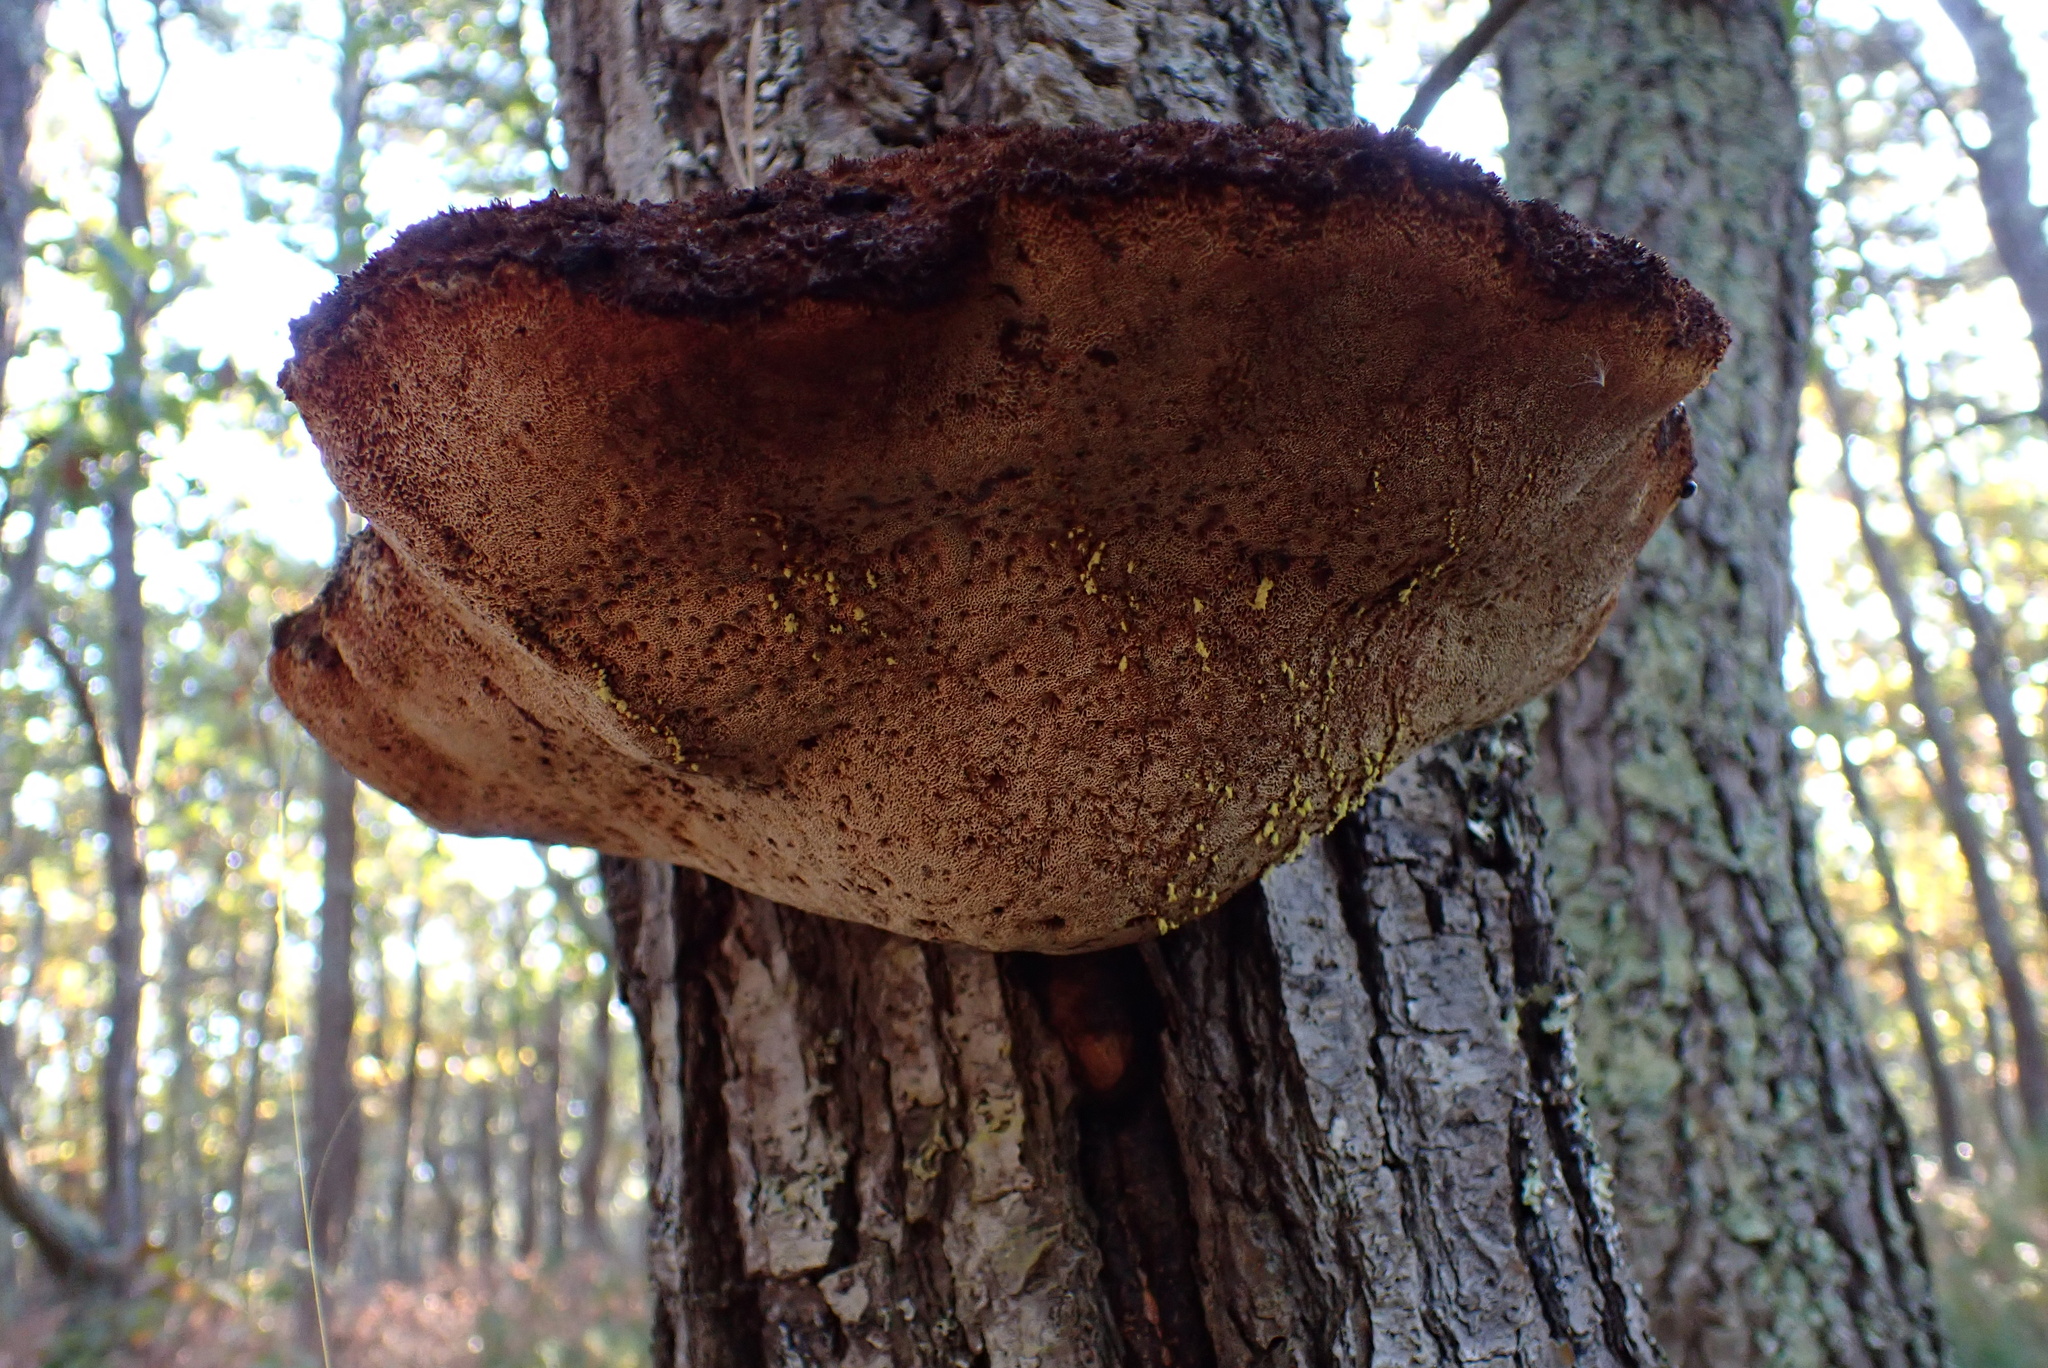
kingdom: Fungi
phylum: Basidiomycota
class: Agaricomycetes
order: Hymenochaetales
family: Hymenochaetaceae
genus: Inonotus
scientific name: Inonotus hispidus
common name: Shaggy bracket
